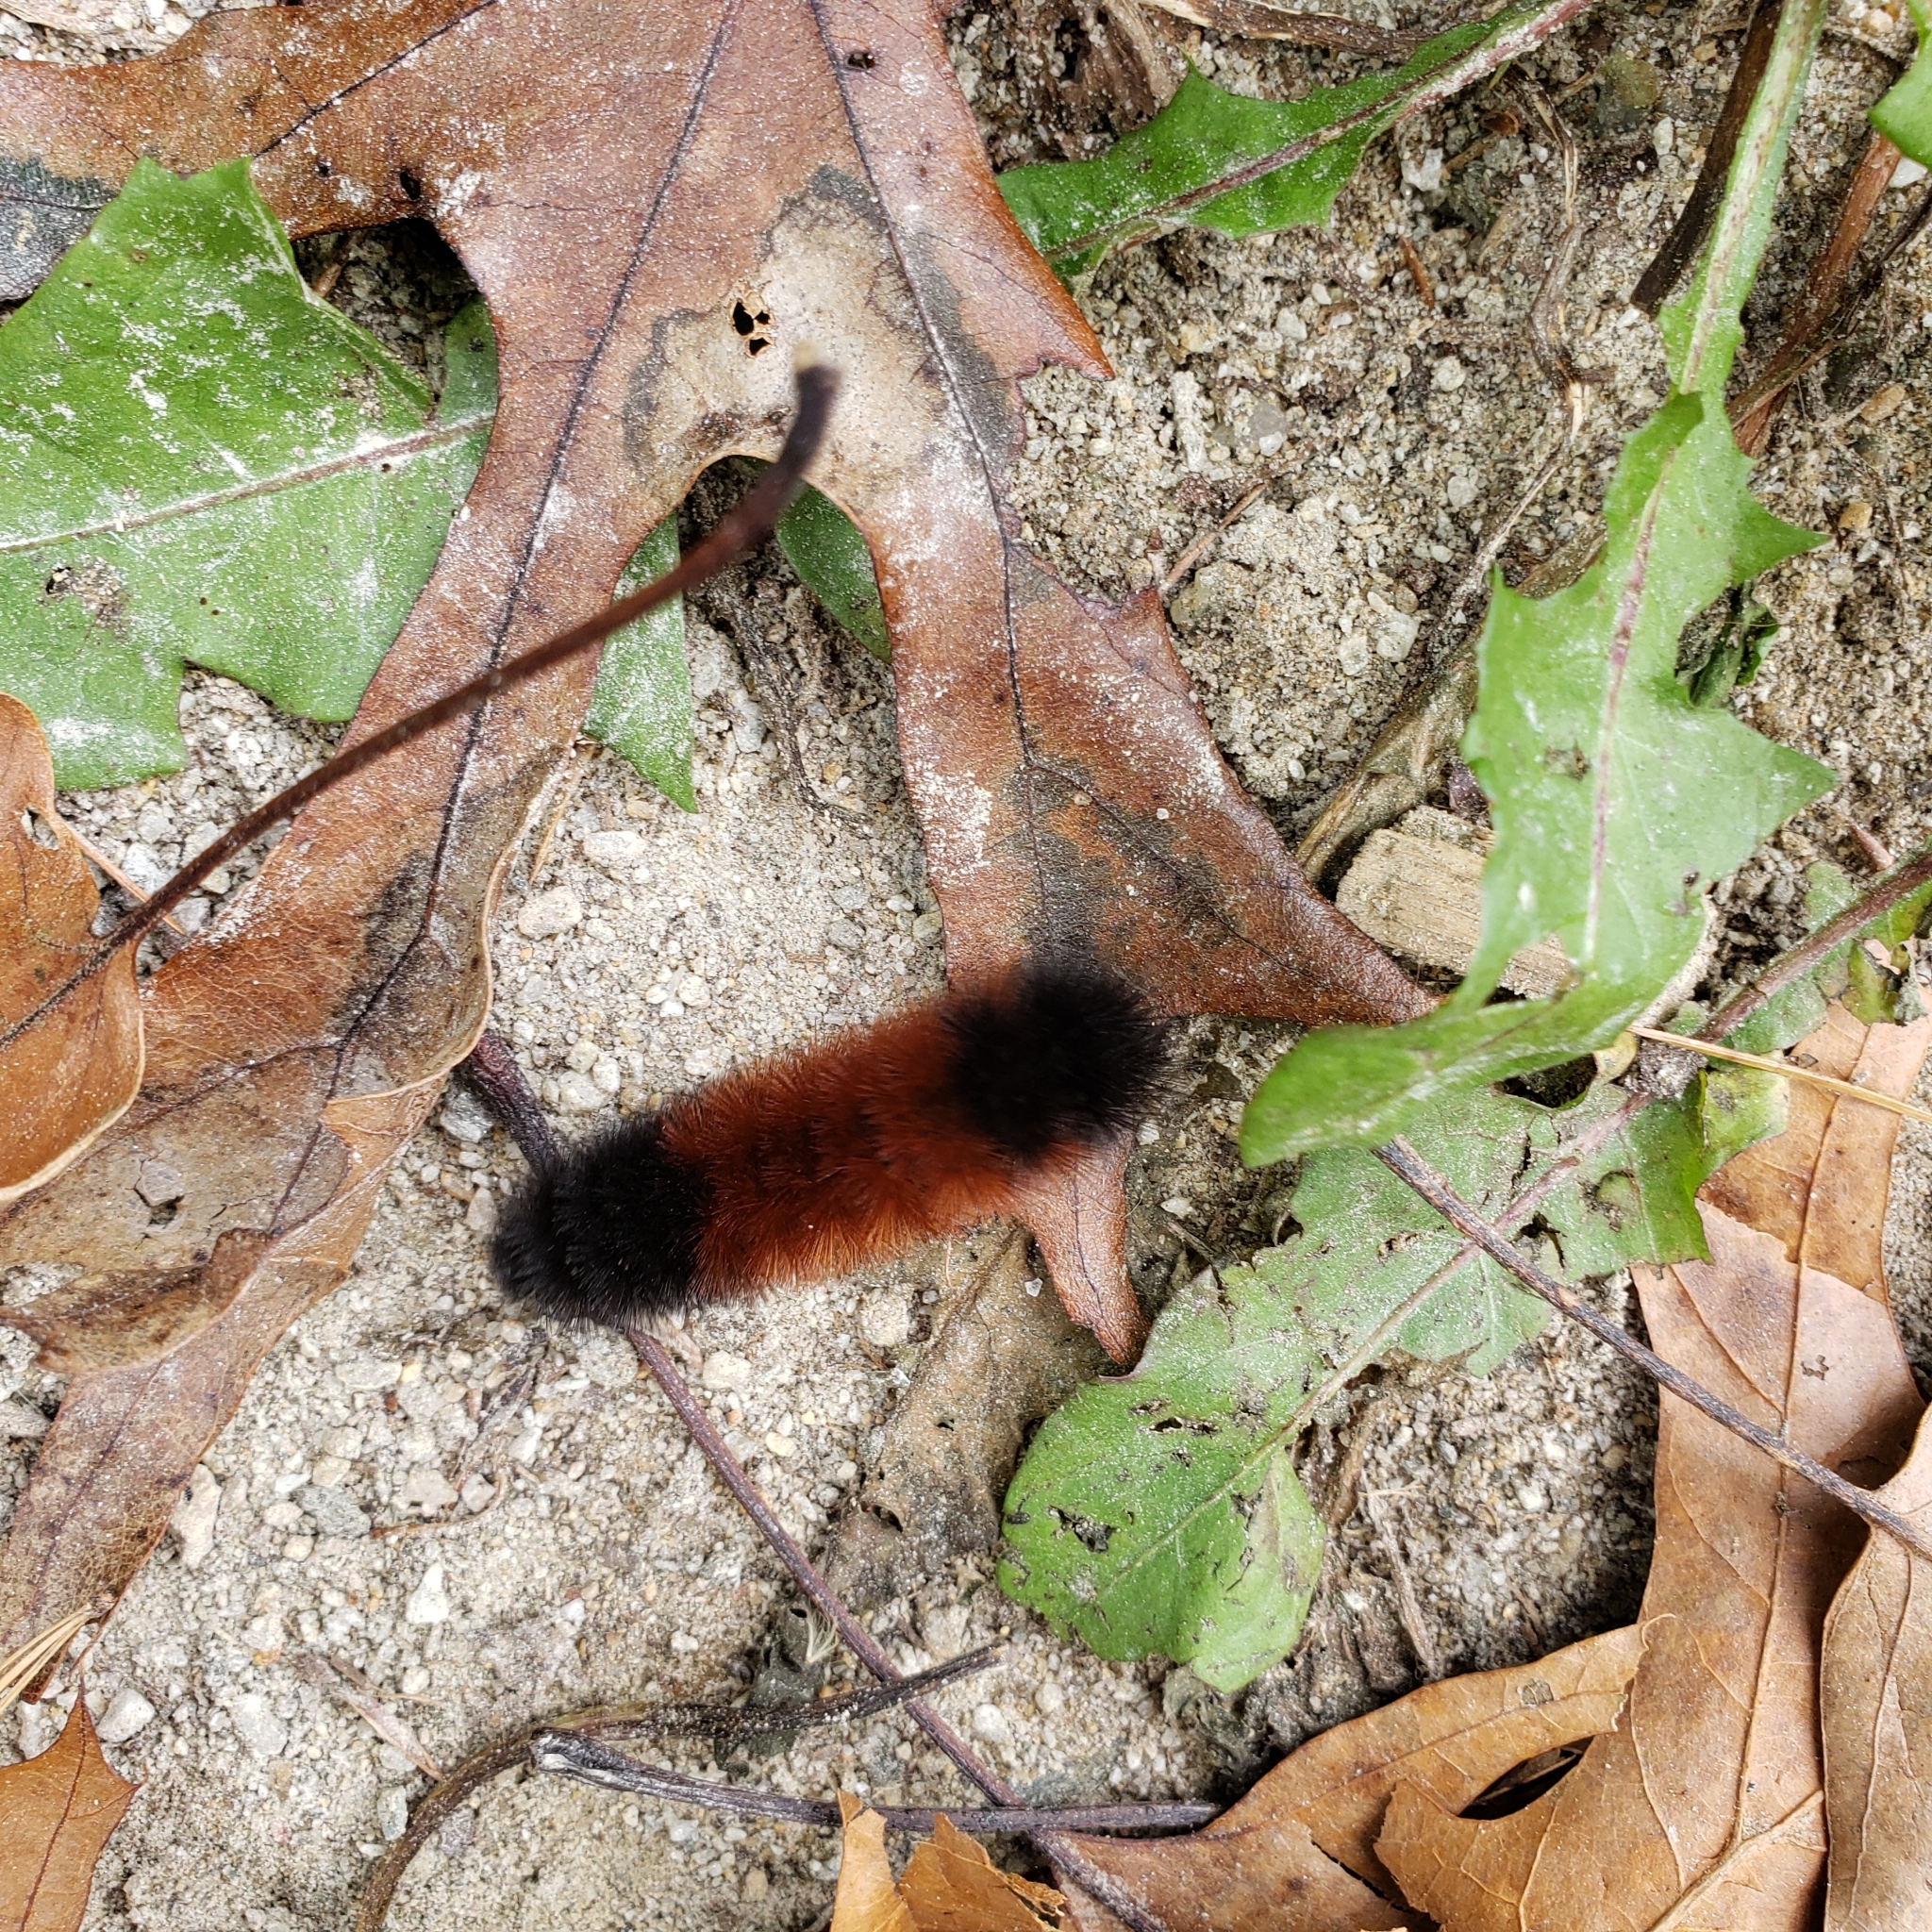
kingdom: Animalia
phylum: Arthropoda
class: Insecta
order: Lepidoptera
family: Erebidae
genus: Pyrrharctia
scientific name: Pyrrharctia isabella
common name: Isabella tiger moth
